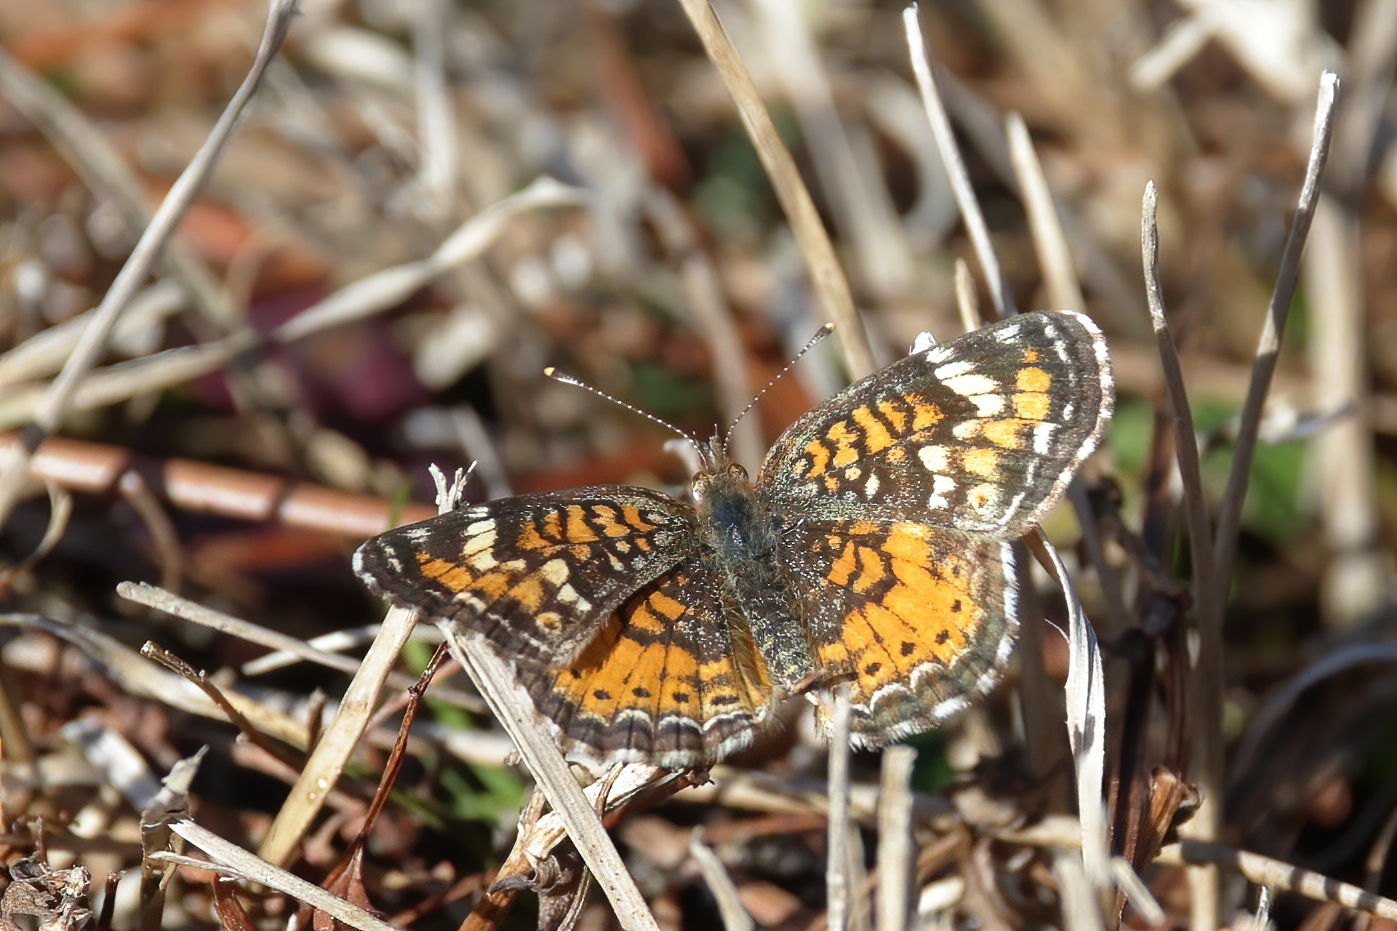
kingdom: Animalia
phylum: Arthropoda
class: Insecta
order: Lepidoptera
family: Nymphalidae
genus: Phyciodes
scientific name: Phyciodes phaon
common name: Phaon crescent
